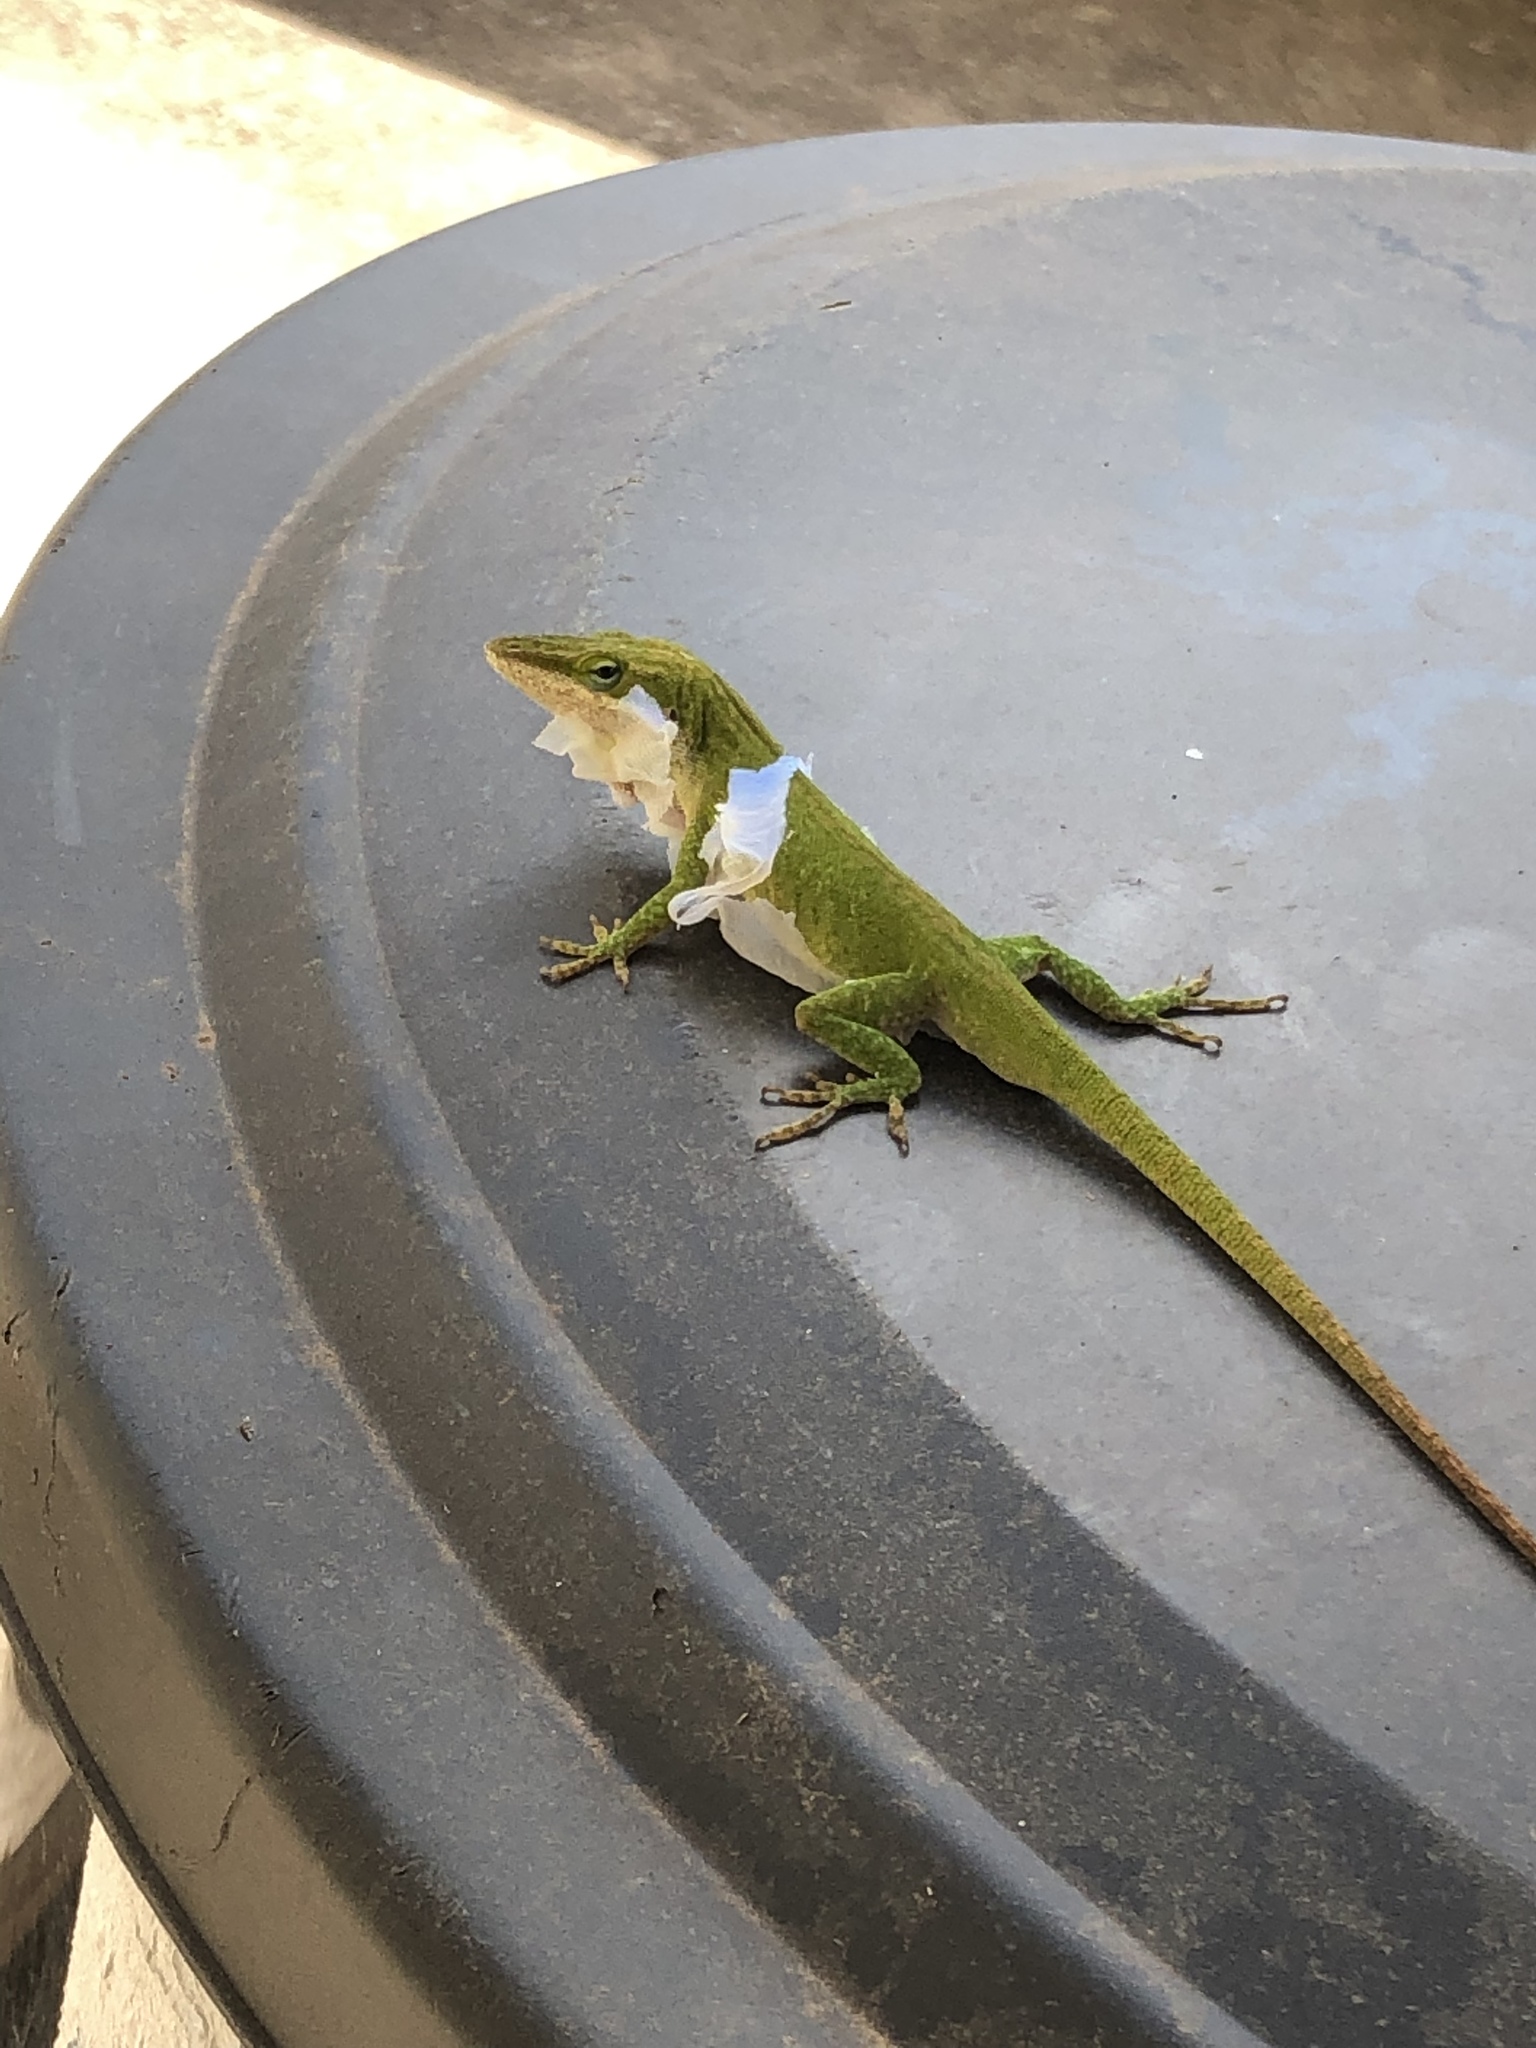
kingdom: Animalia
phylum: Chordata
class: Squamata
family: Dactyloidae
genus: Anolis
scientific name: Anolis carolinensis
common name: Green anole
